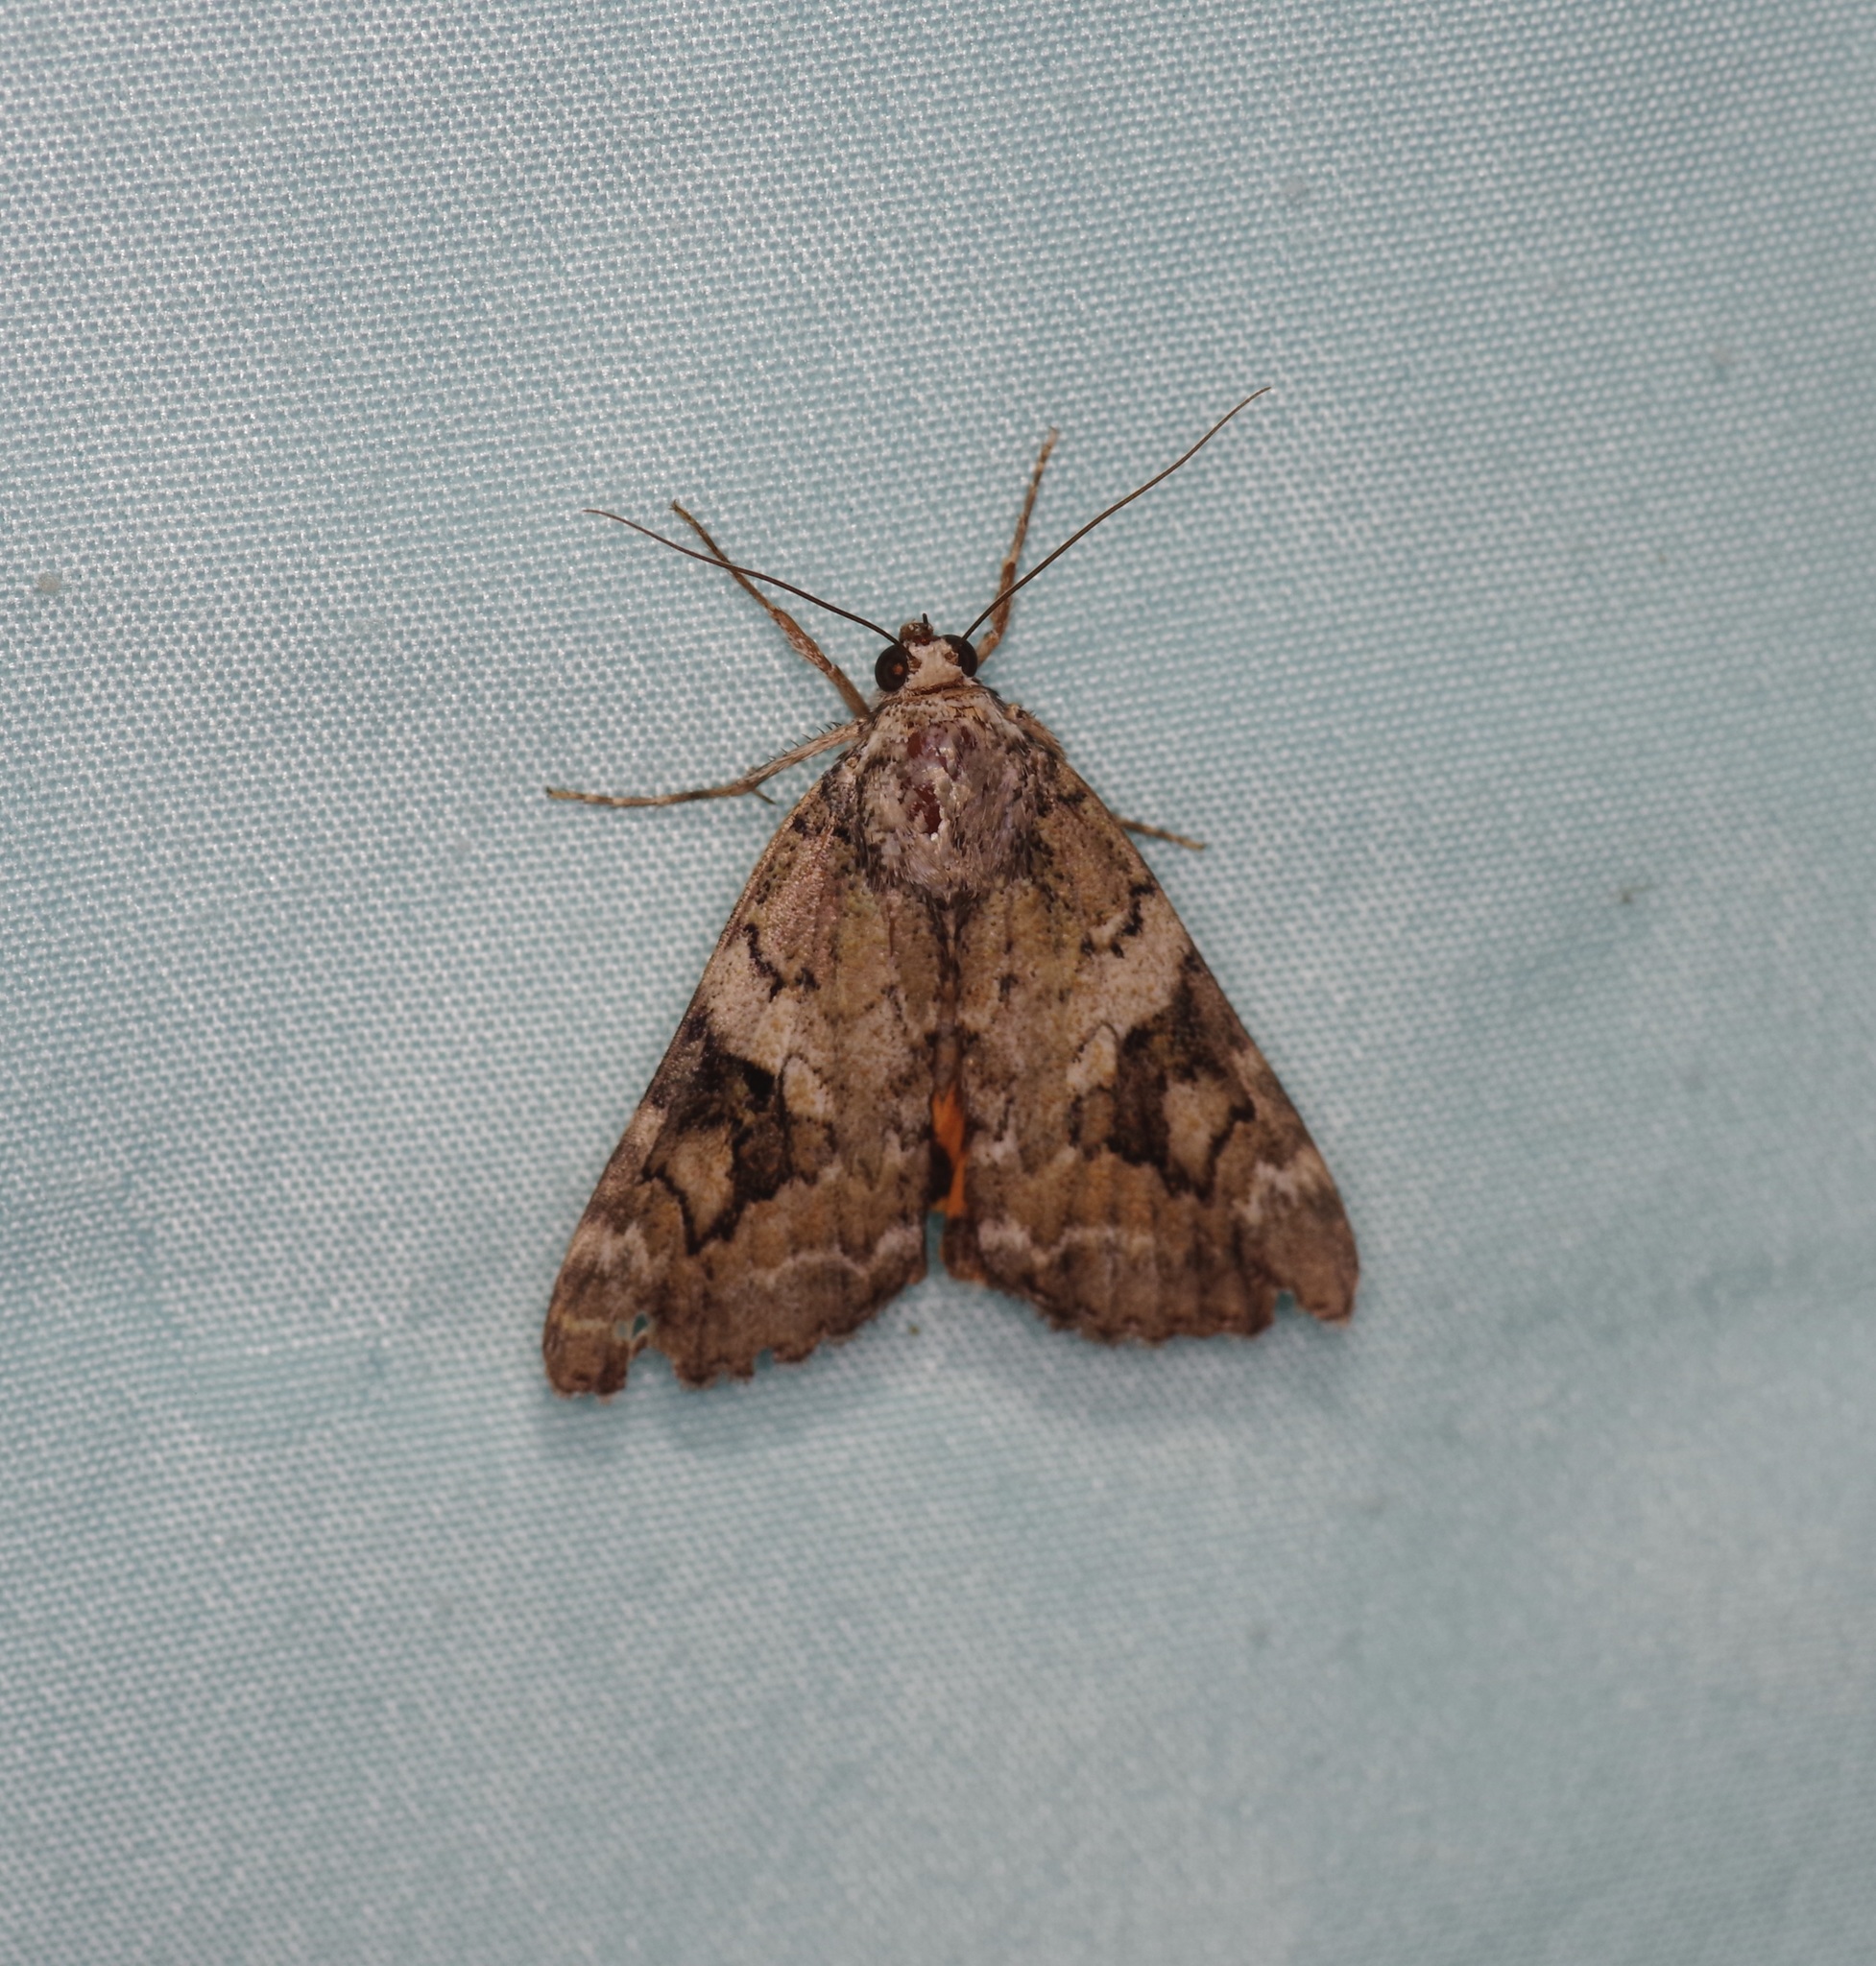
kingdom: Animalia
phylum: Arthropoda
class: Insecta
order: Lepidoptera
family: Erebidae
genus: Catocala
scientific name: Catocala micronympha
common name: Little nymph underwing
